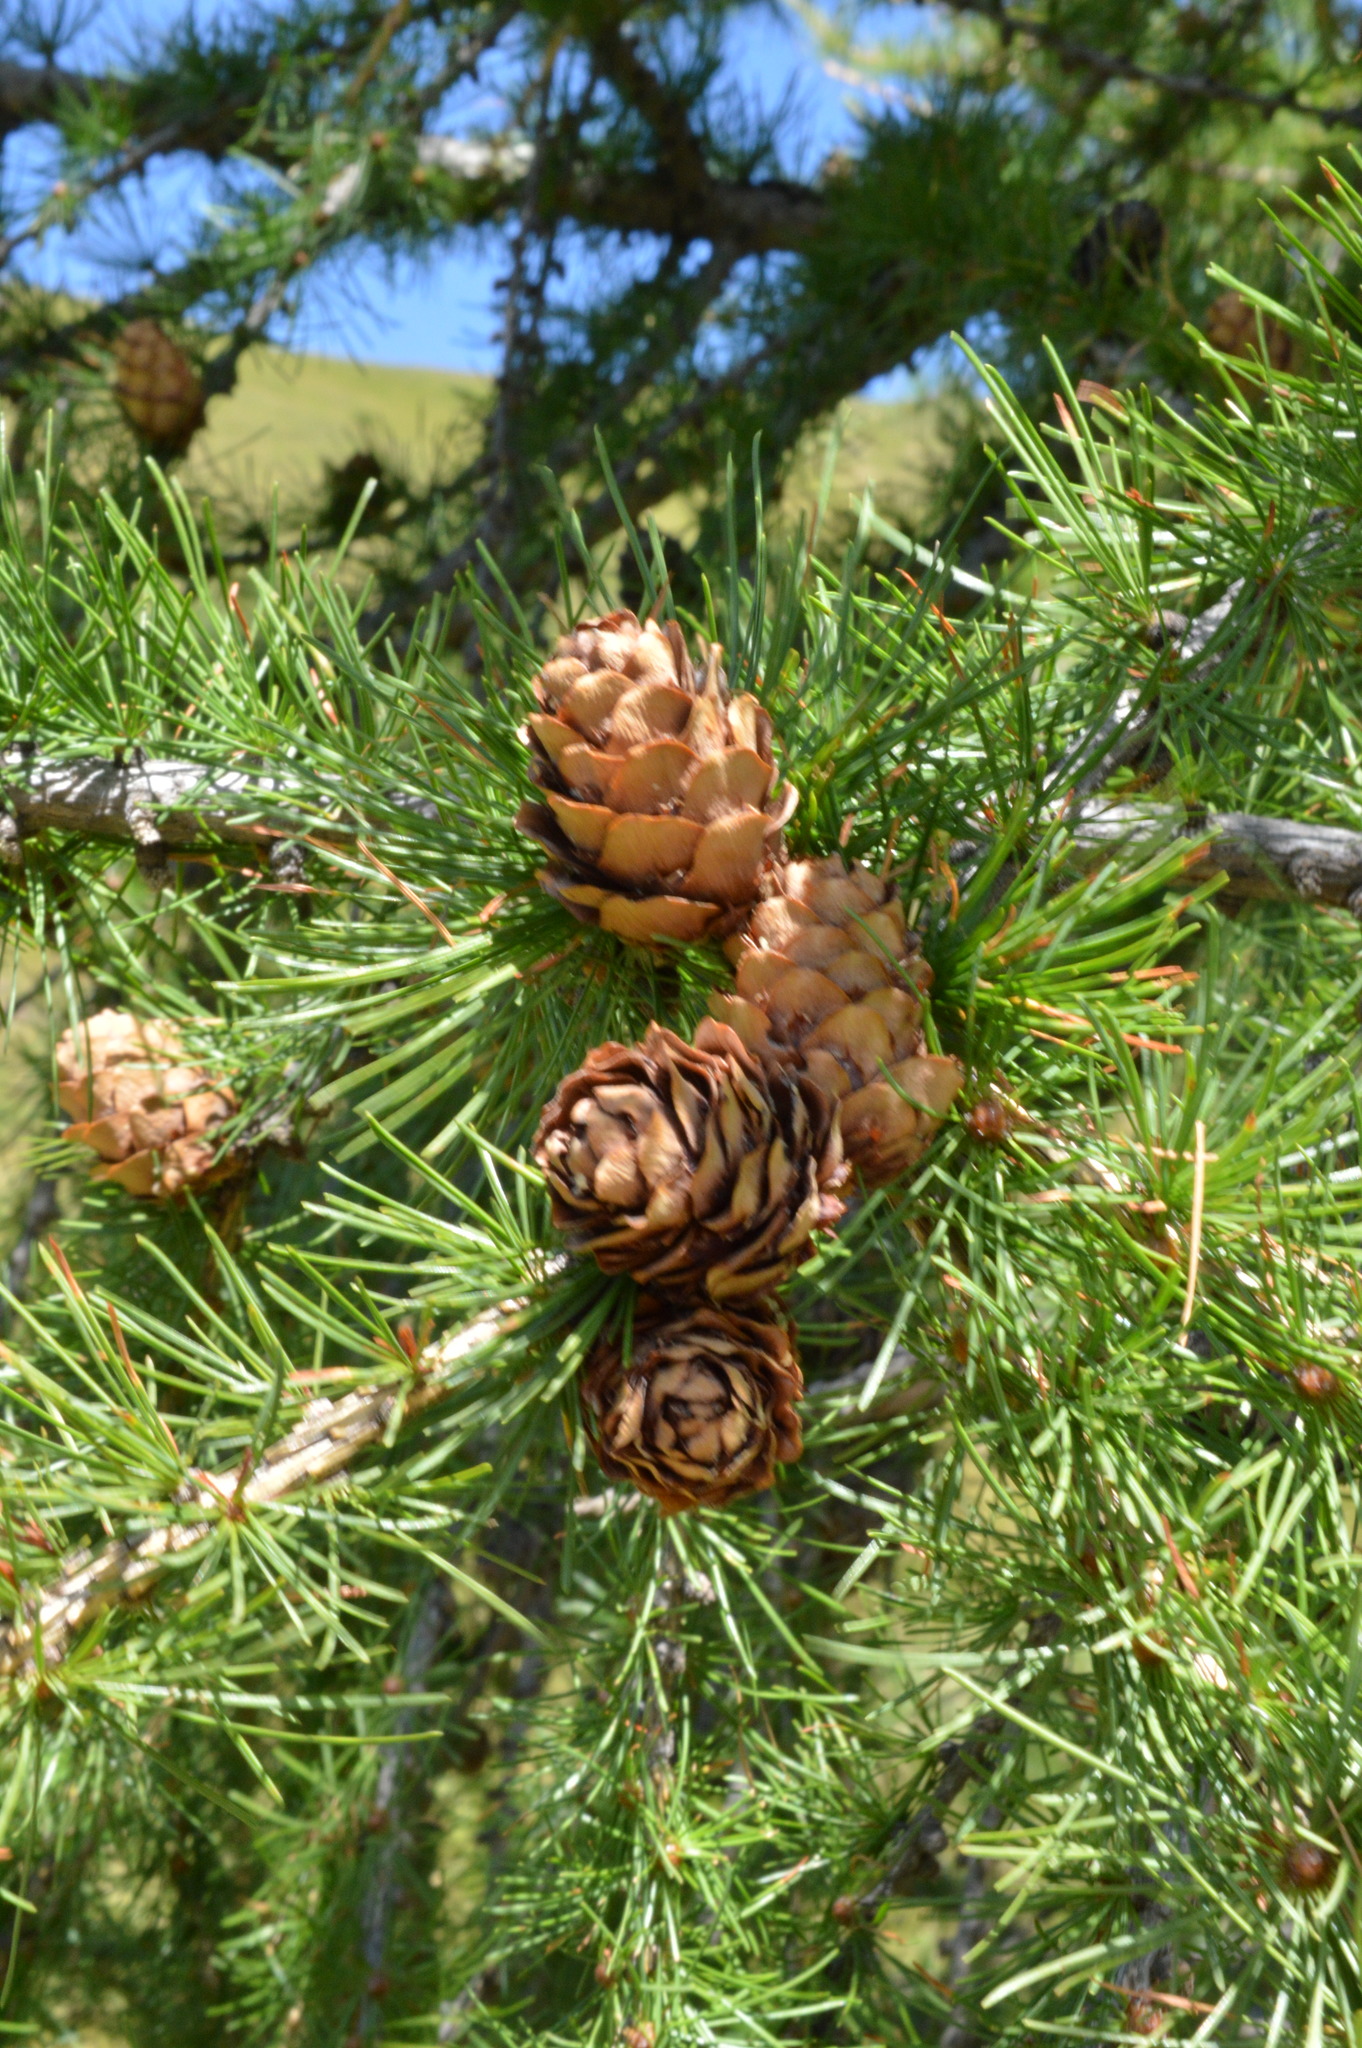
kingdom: Plantae
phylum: Tracheophyta
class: Pinopsida
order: Pinales
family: Pinaceae
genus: Larix
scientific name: Larix decidua
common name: European larch
